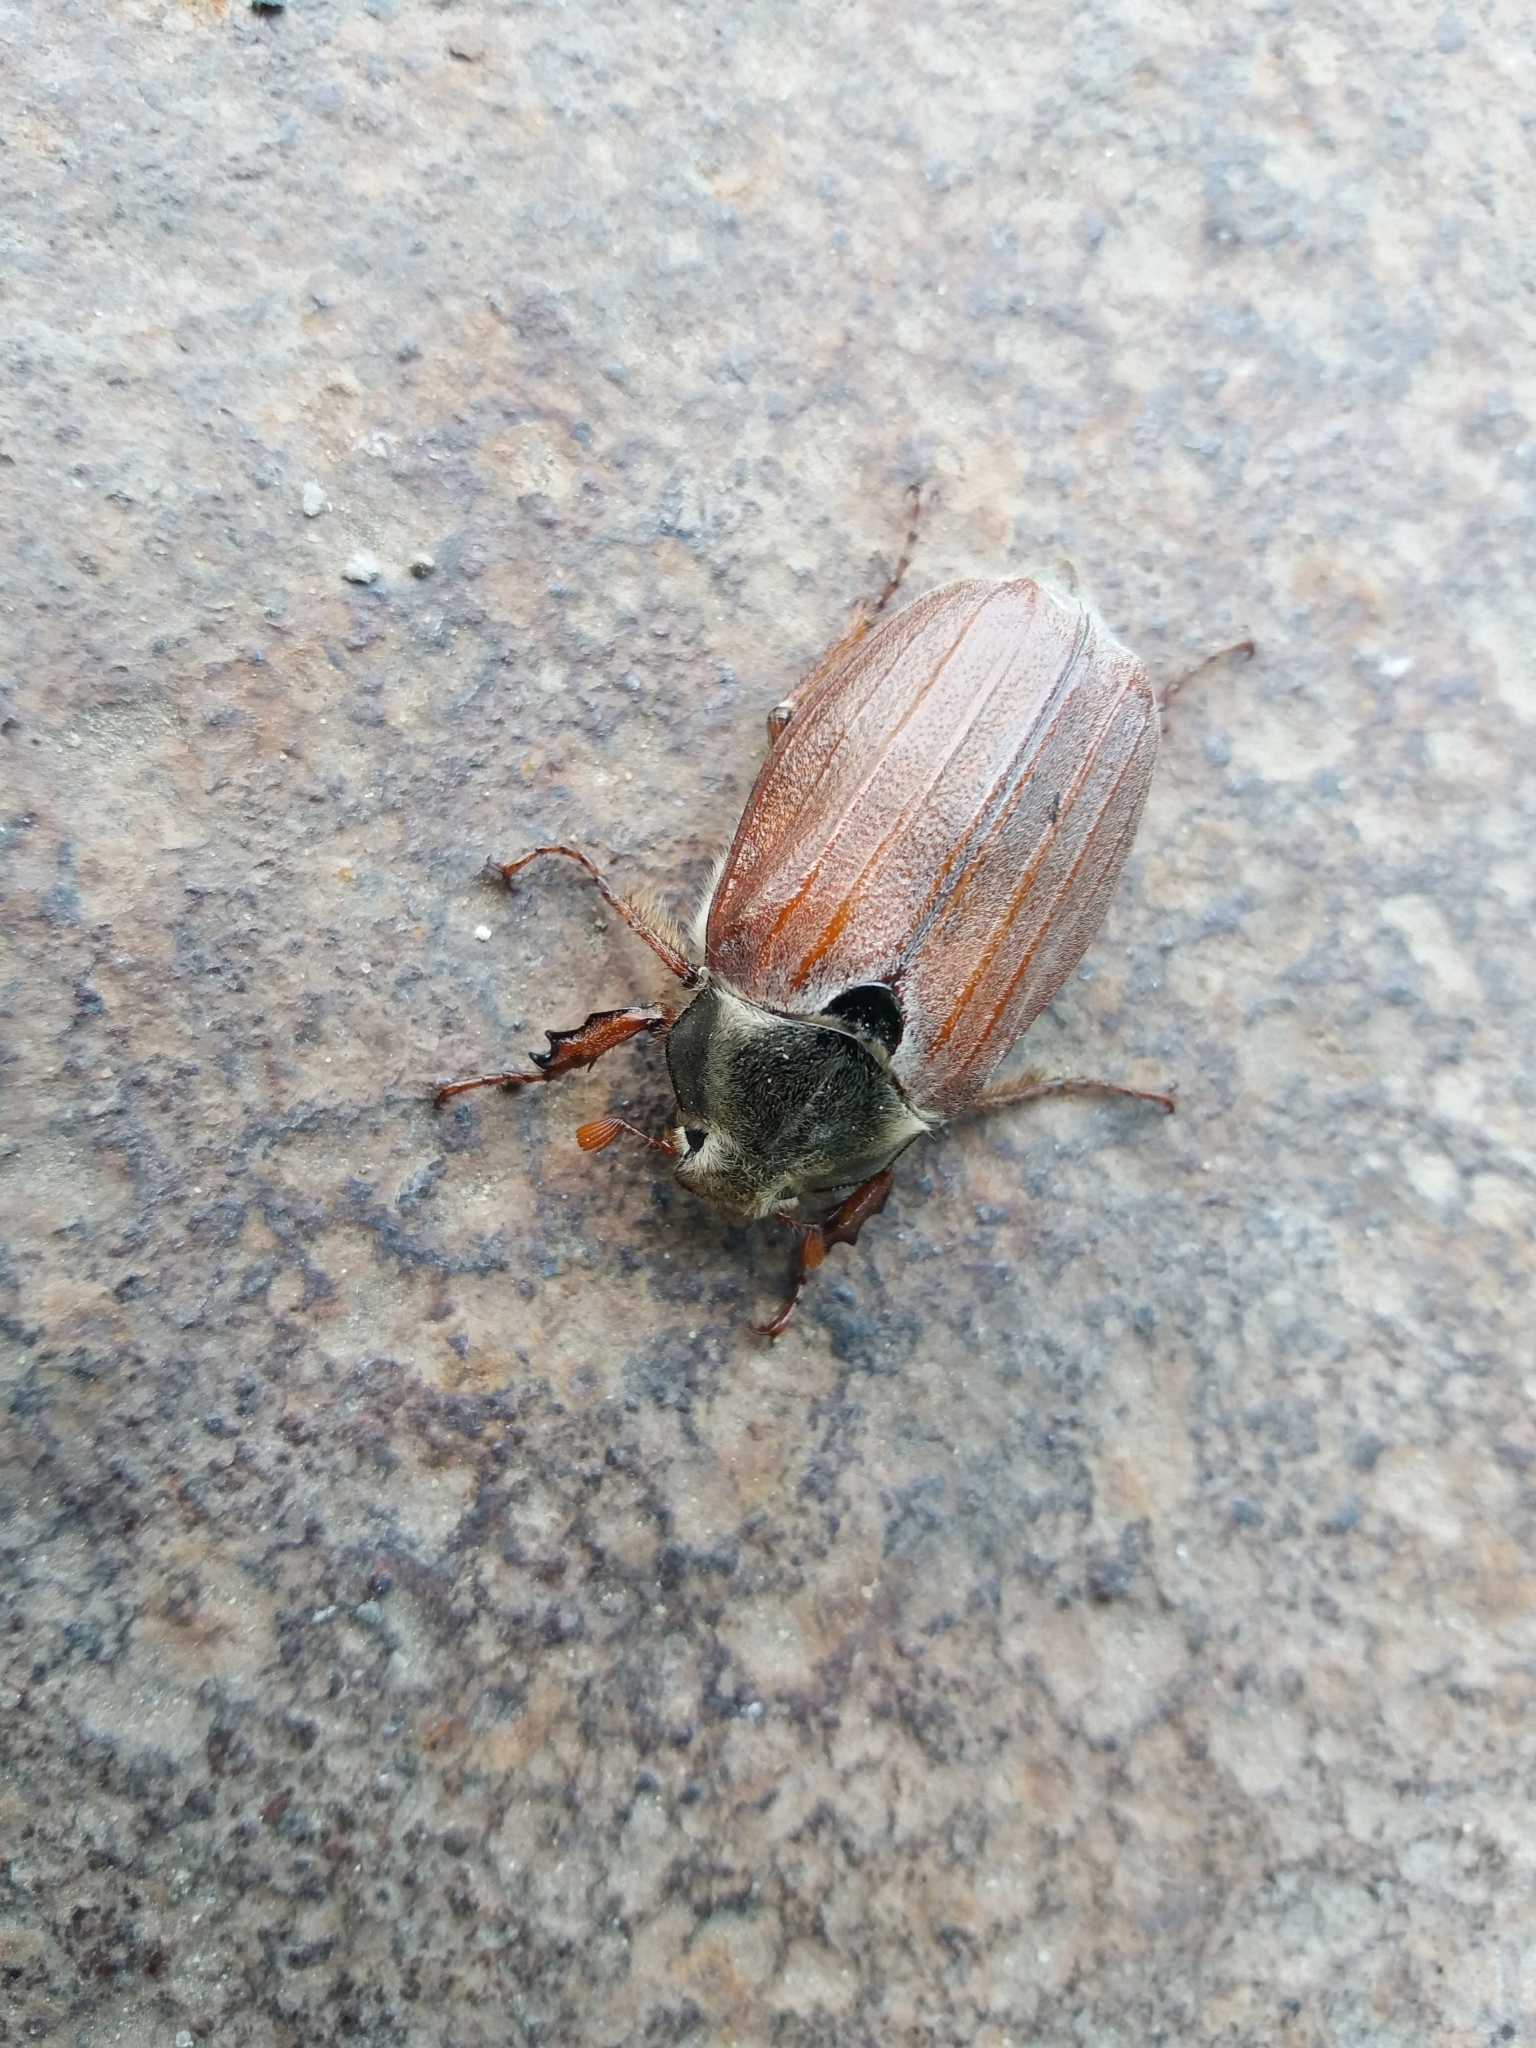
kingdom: Animalia
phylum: Arthropoda
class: Insecta
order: Coleoptera
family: Scarabaeidae
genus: Melolontha
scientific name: Melolontha melolontha
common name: Cockchafer maybeetle
